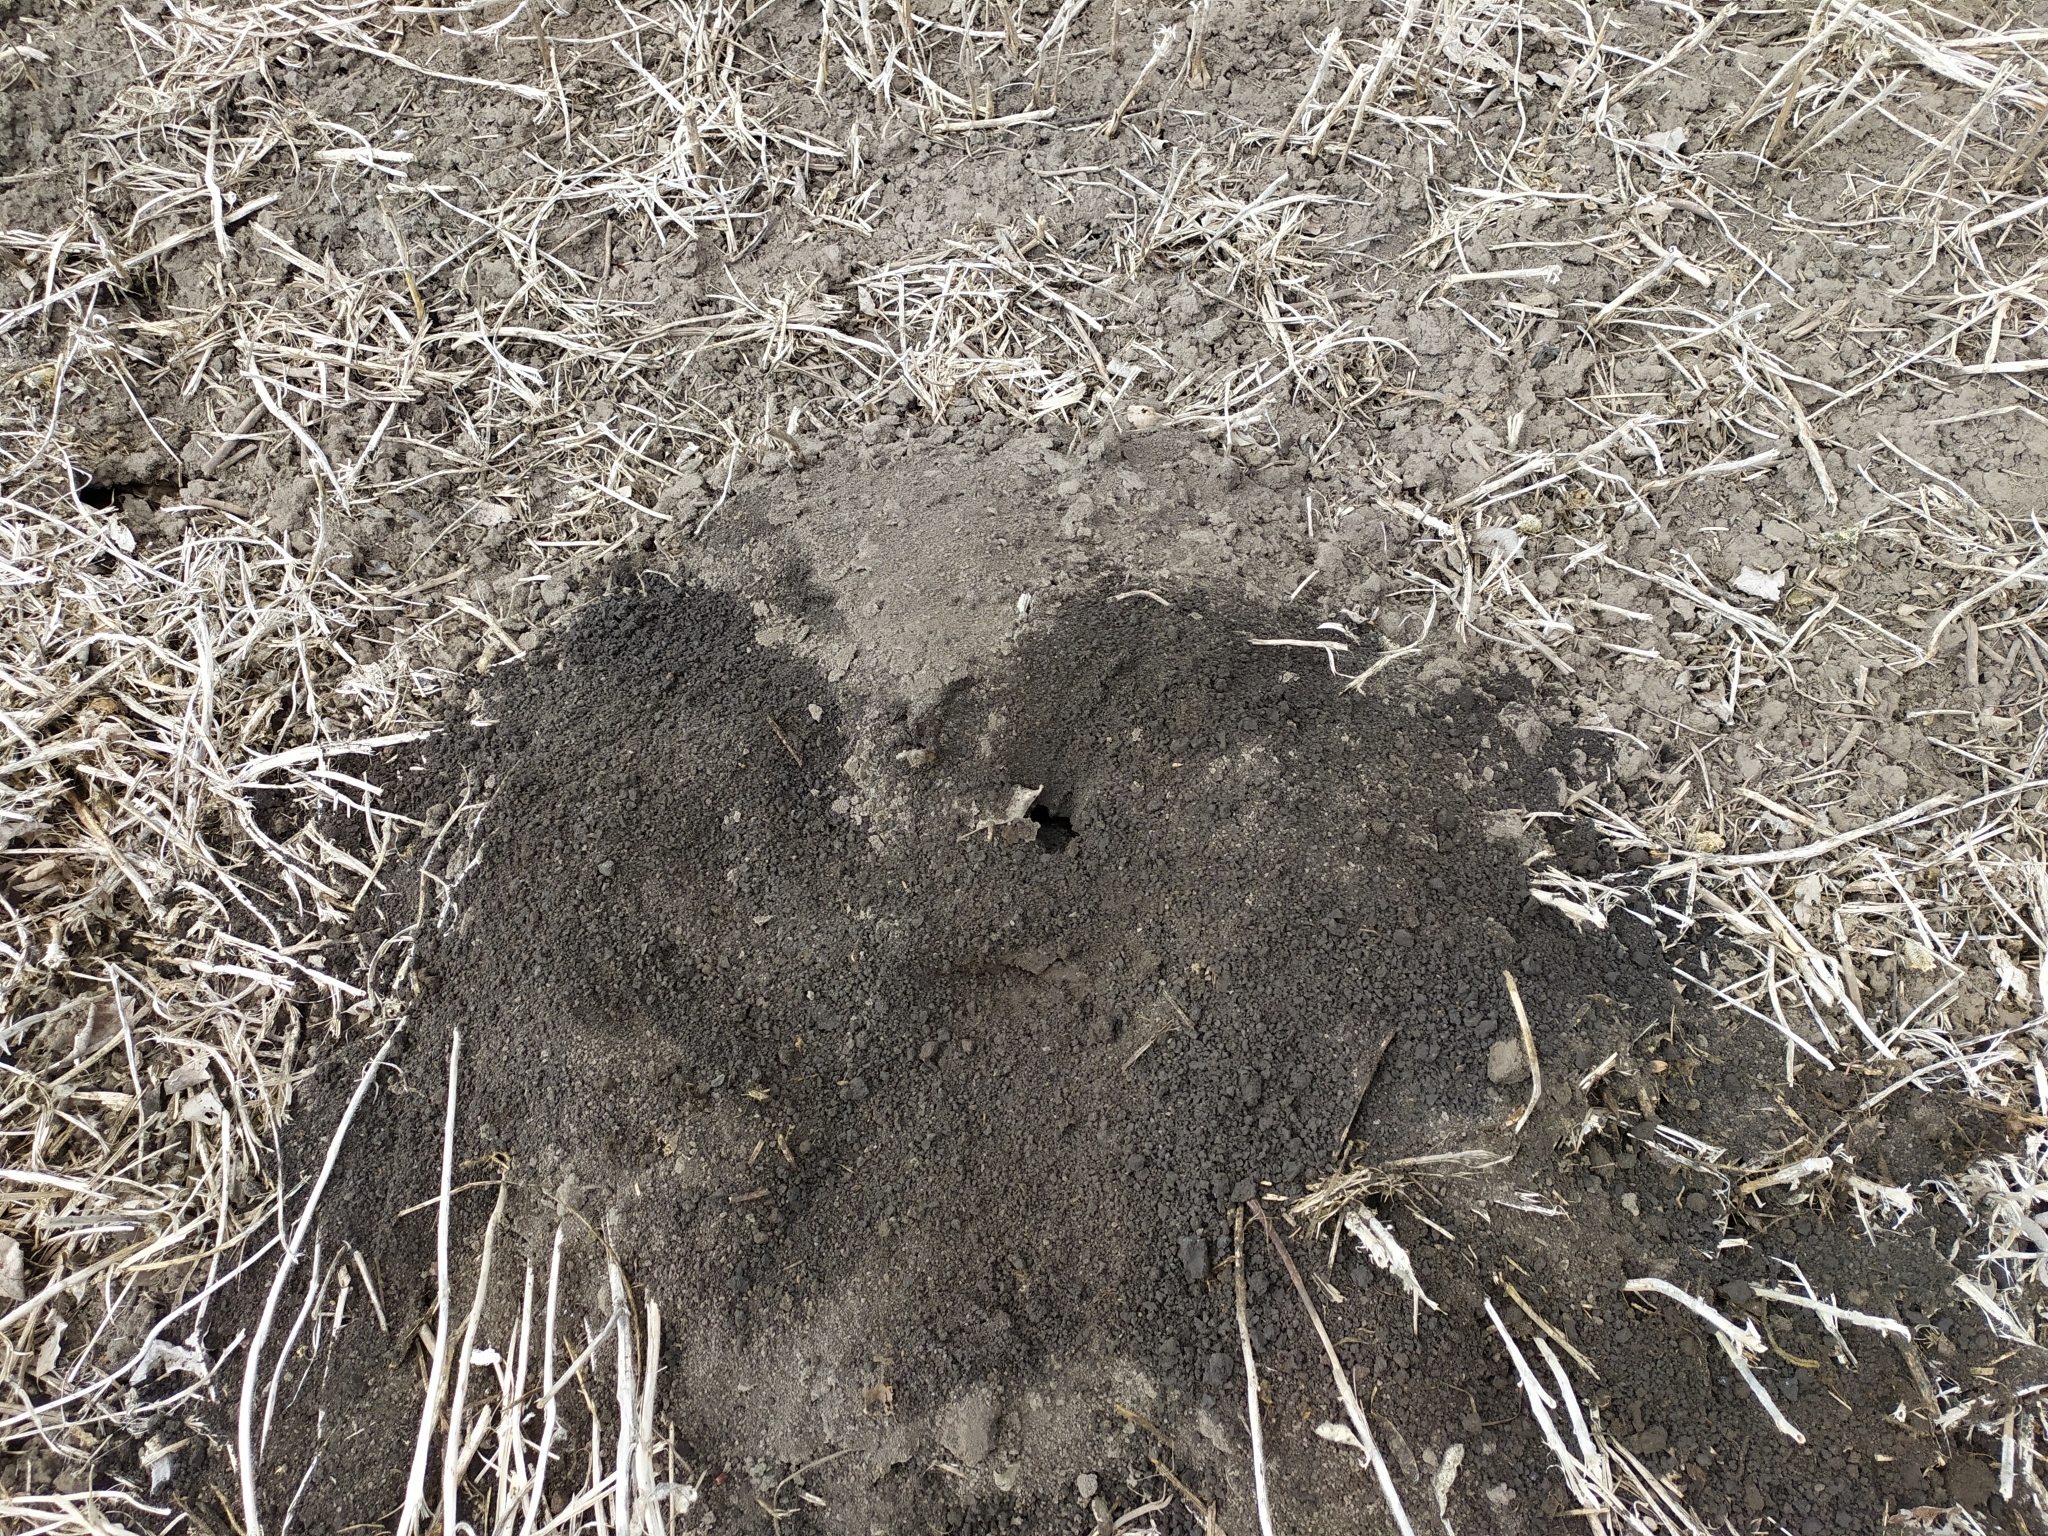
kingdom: Animalia
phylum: Chordata
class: Mammalia
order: Soricomorpha
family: Talpidae
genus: Talpa
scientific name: Talpa europaea
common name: European mole
